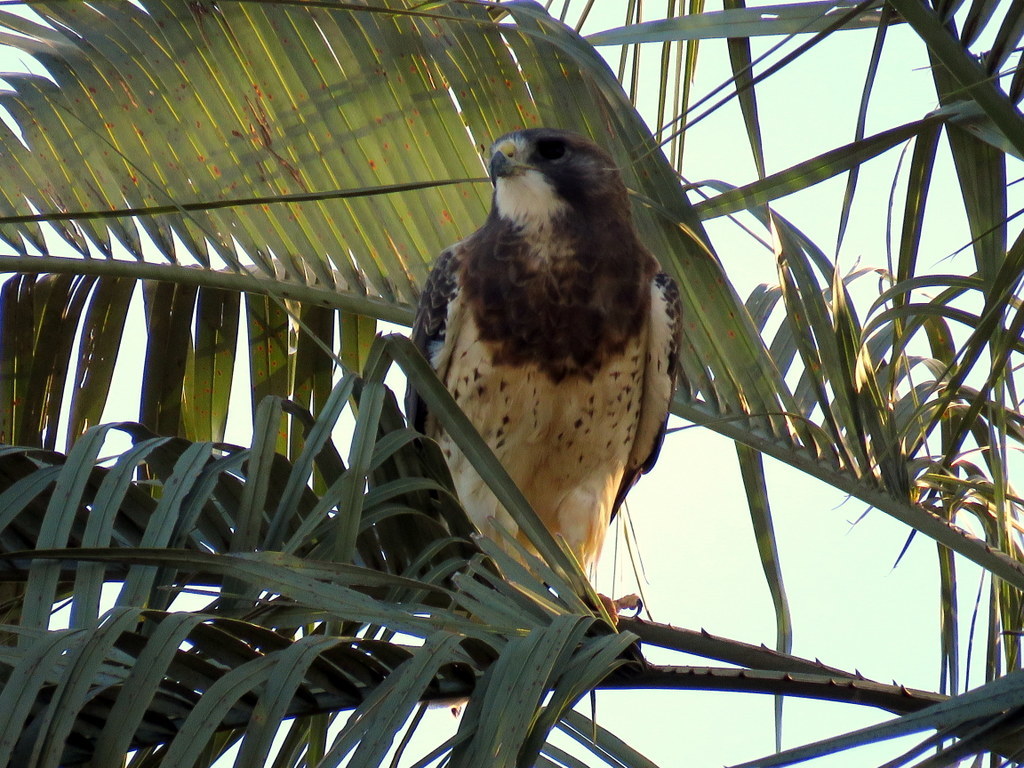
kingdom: Animalia
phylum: Chordata
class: Aves
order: Accipitriformes
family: Accipitridae
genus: Buteo
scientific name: Buteo swainsoni
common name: Swainson's hawk
